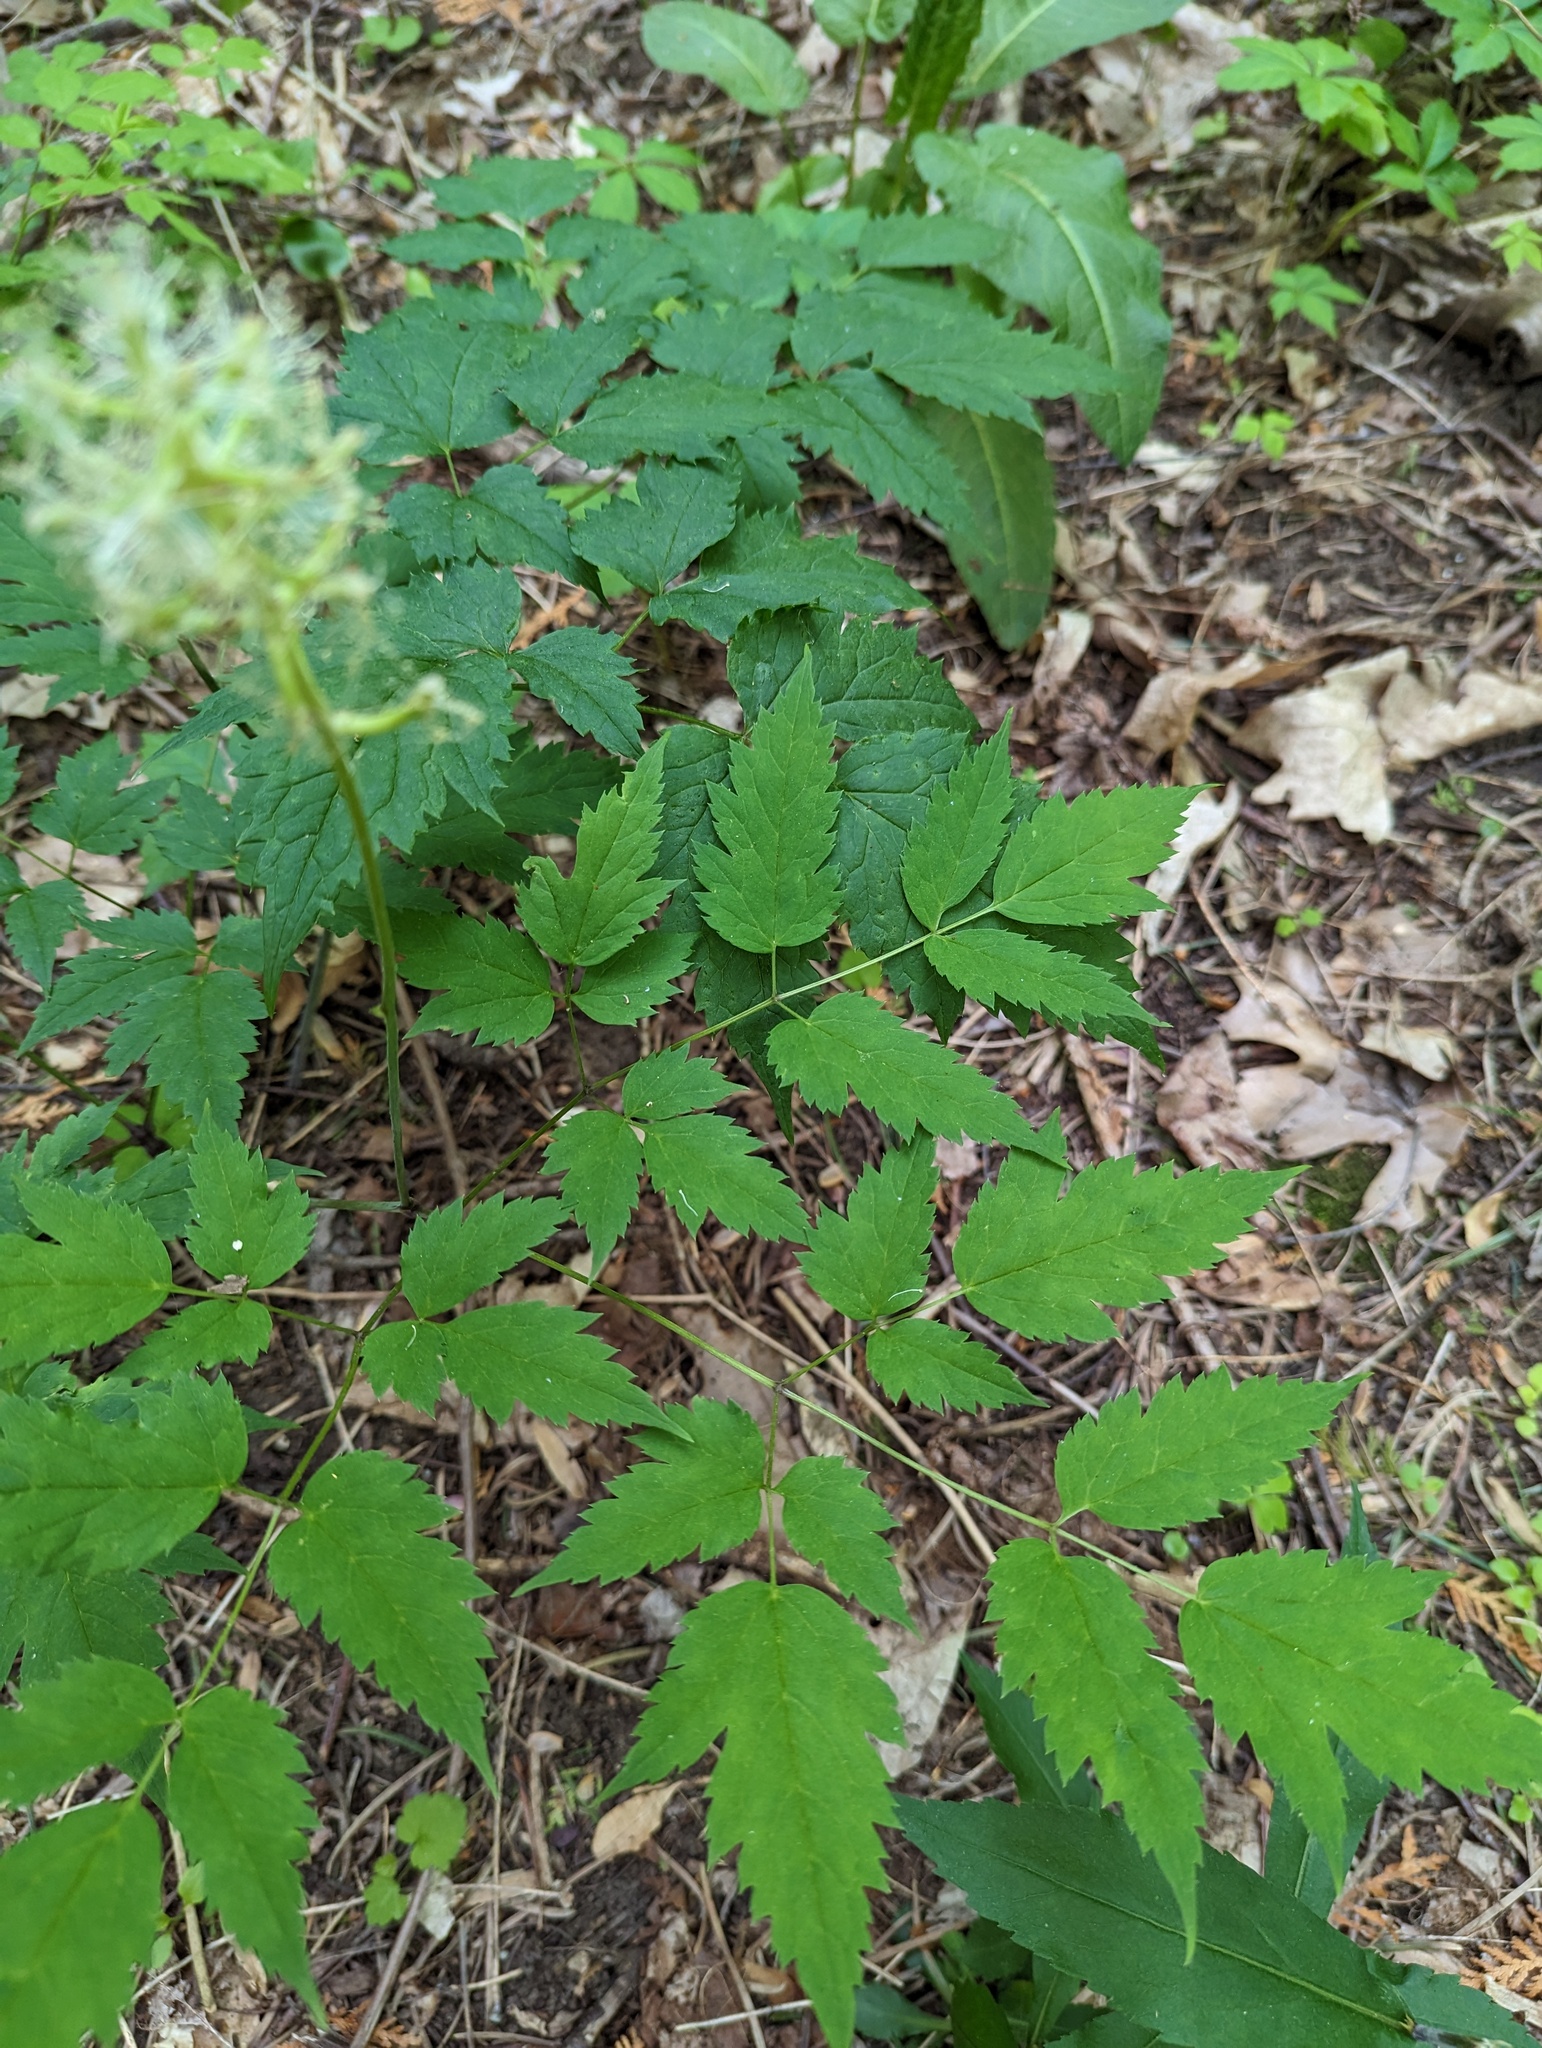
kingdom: Plantae
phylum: Tracheophyta
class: Magnoliopsida
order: Ranunculales
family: Ranunculaceae
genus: Actaea
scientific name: Actaea pachypoda
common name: Doll's-eyes
